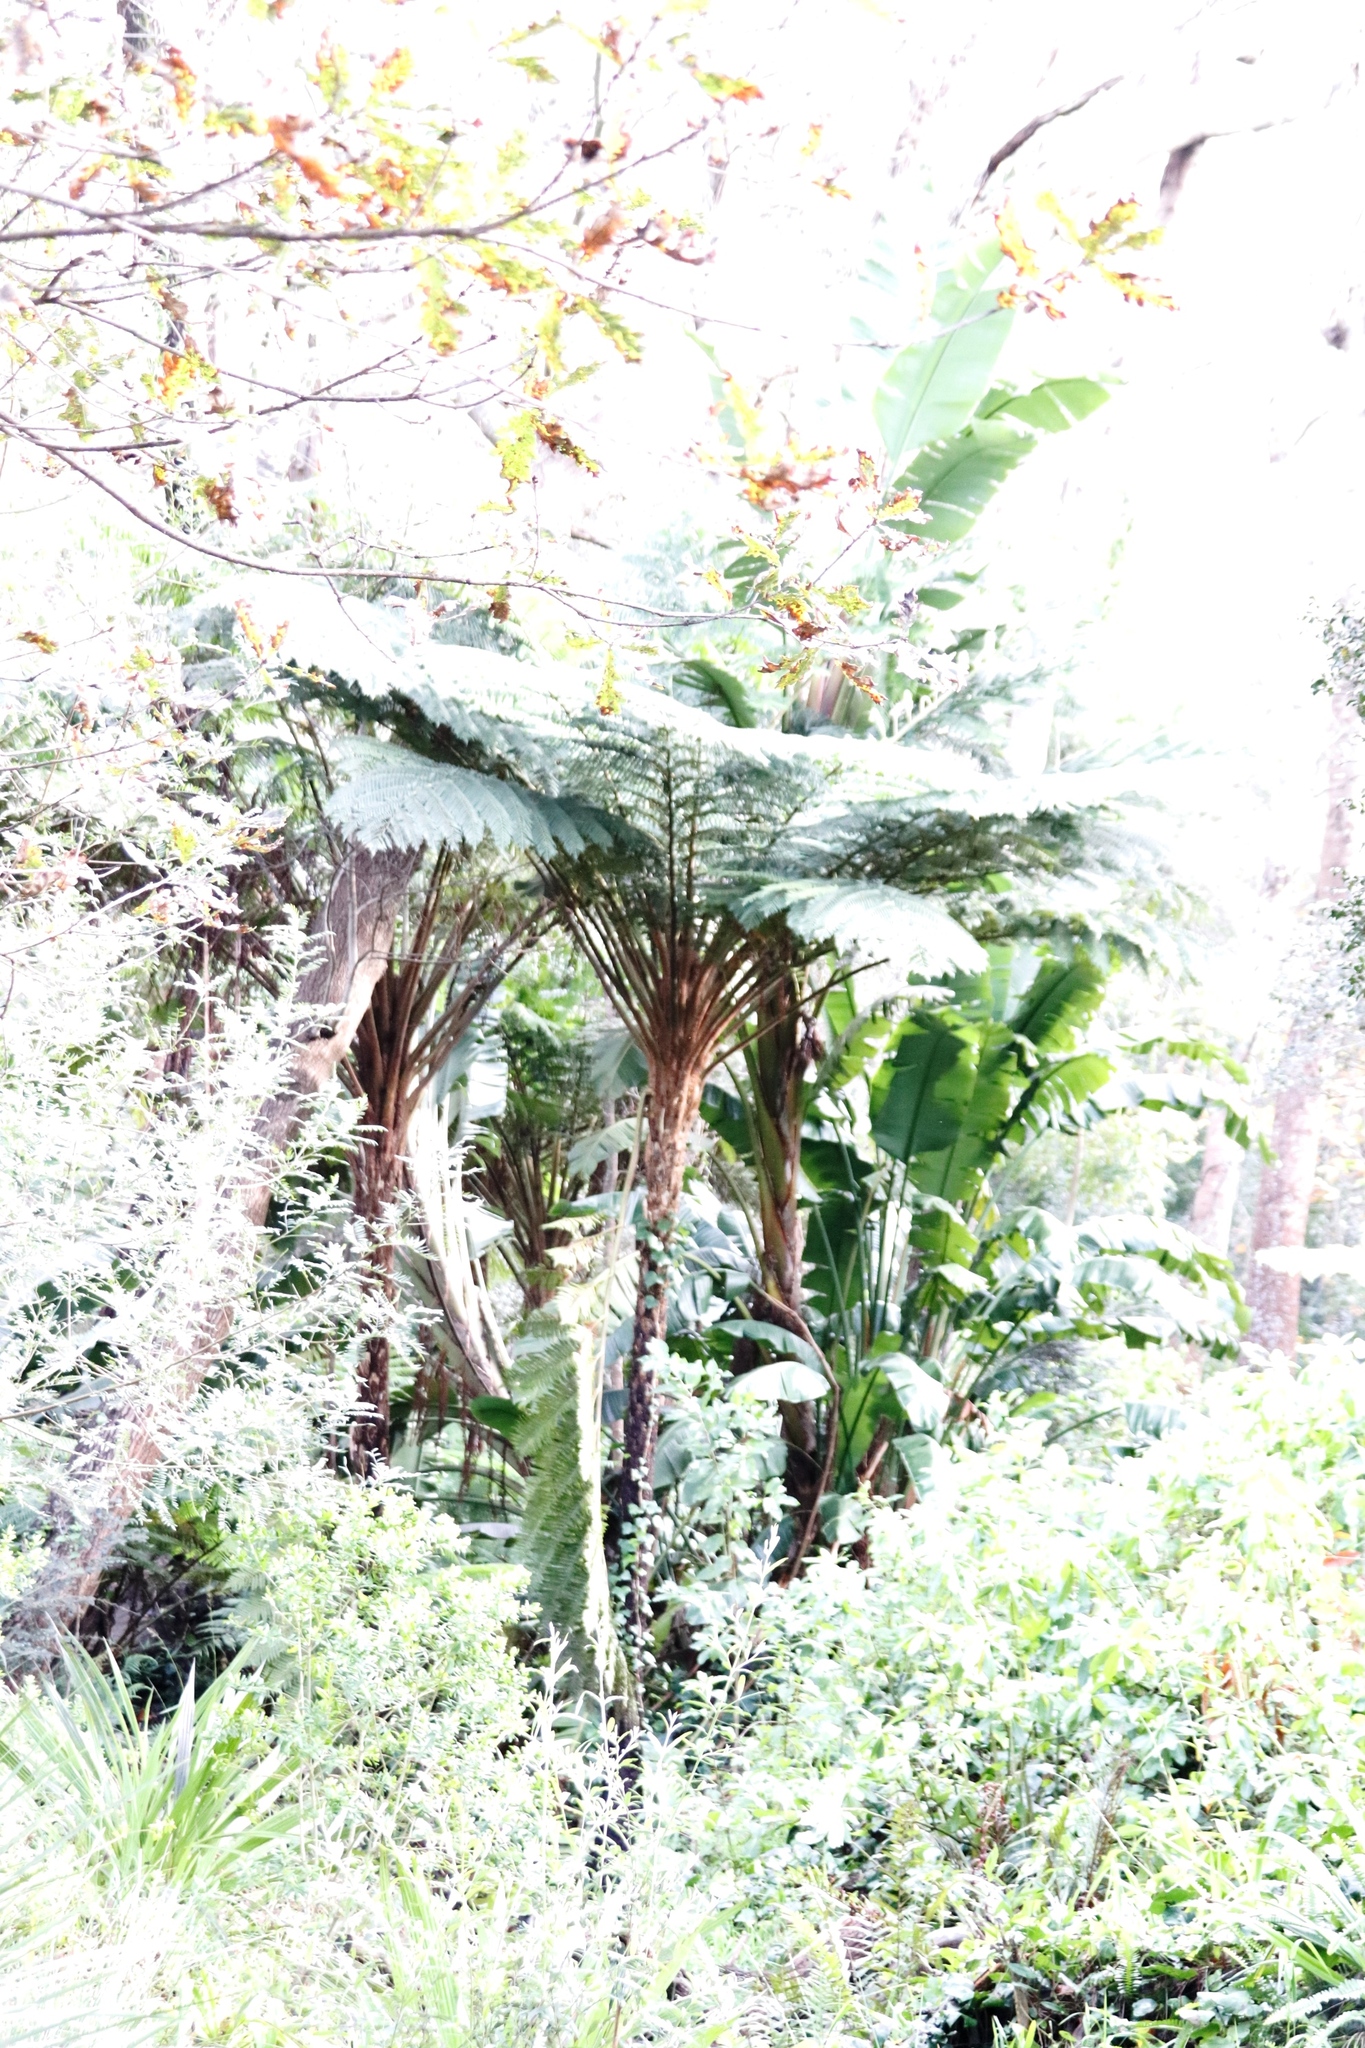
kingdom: Plantae
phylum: Tracheophyta
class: Polypodiopsida
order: Cyatheales
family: Cyatheaceae
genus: Sphaeropteris
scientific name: Sphaeropteris cooperi
